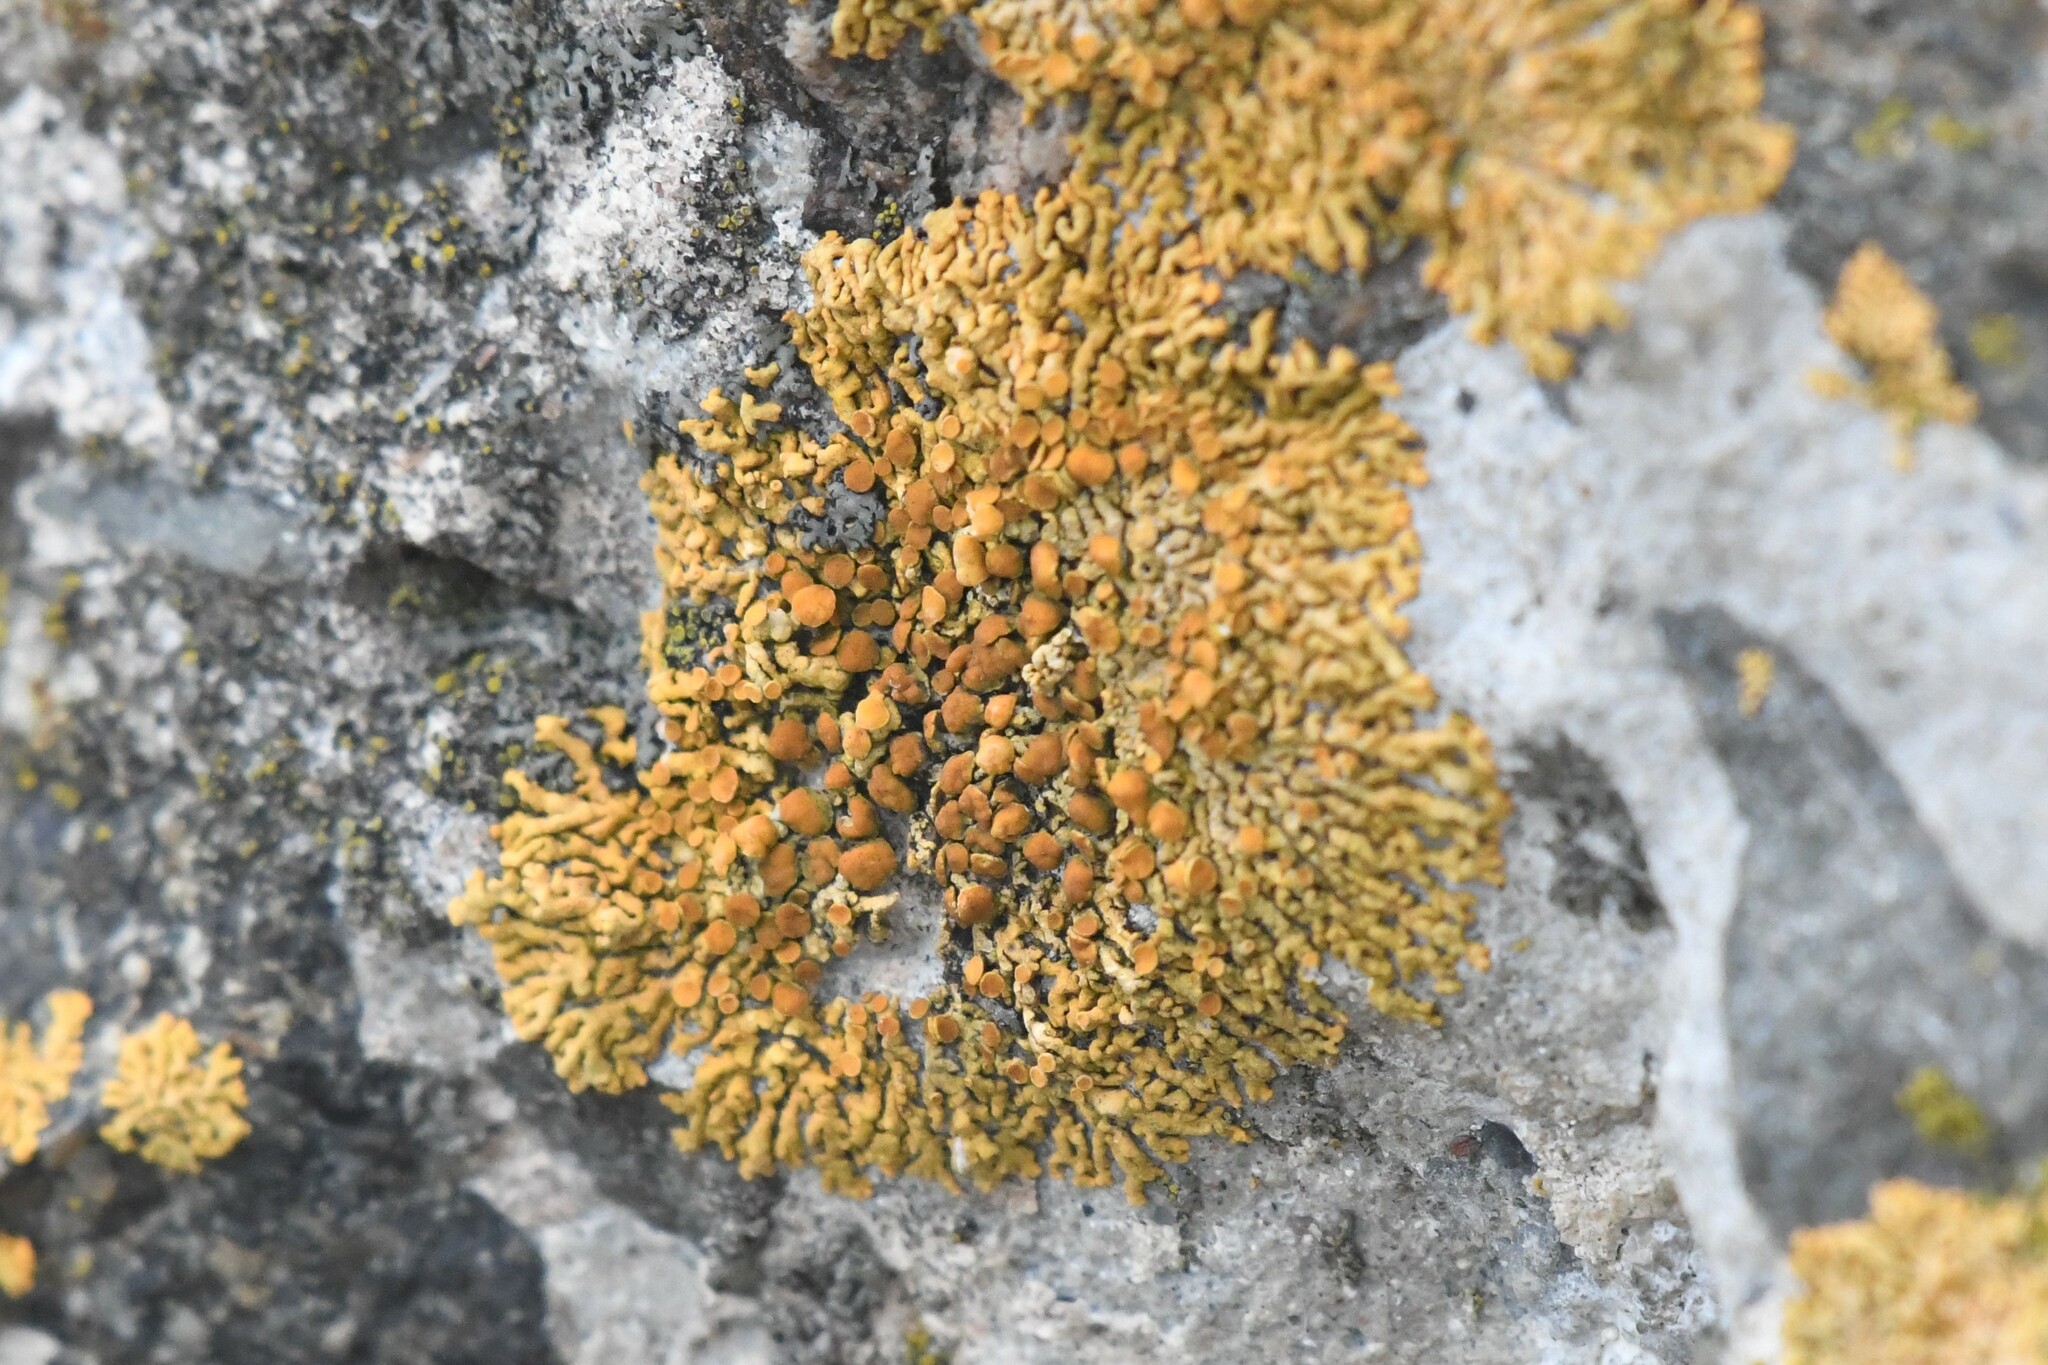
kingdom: Fungi
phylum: Ascomycota
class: Lecanoromycetes
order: Teloschistales
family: Teloschistaceae
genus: Xanthoria
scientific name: Xanthoria elegans
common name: Elegant sunburst lichen
